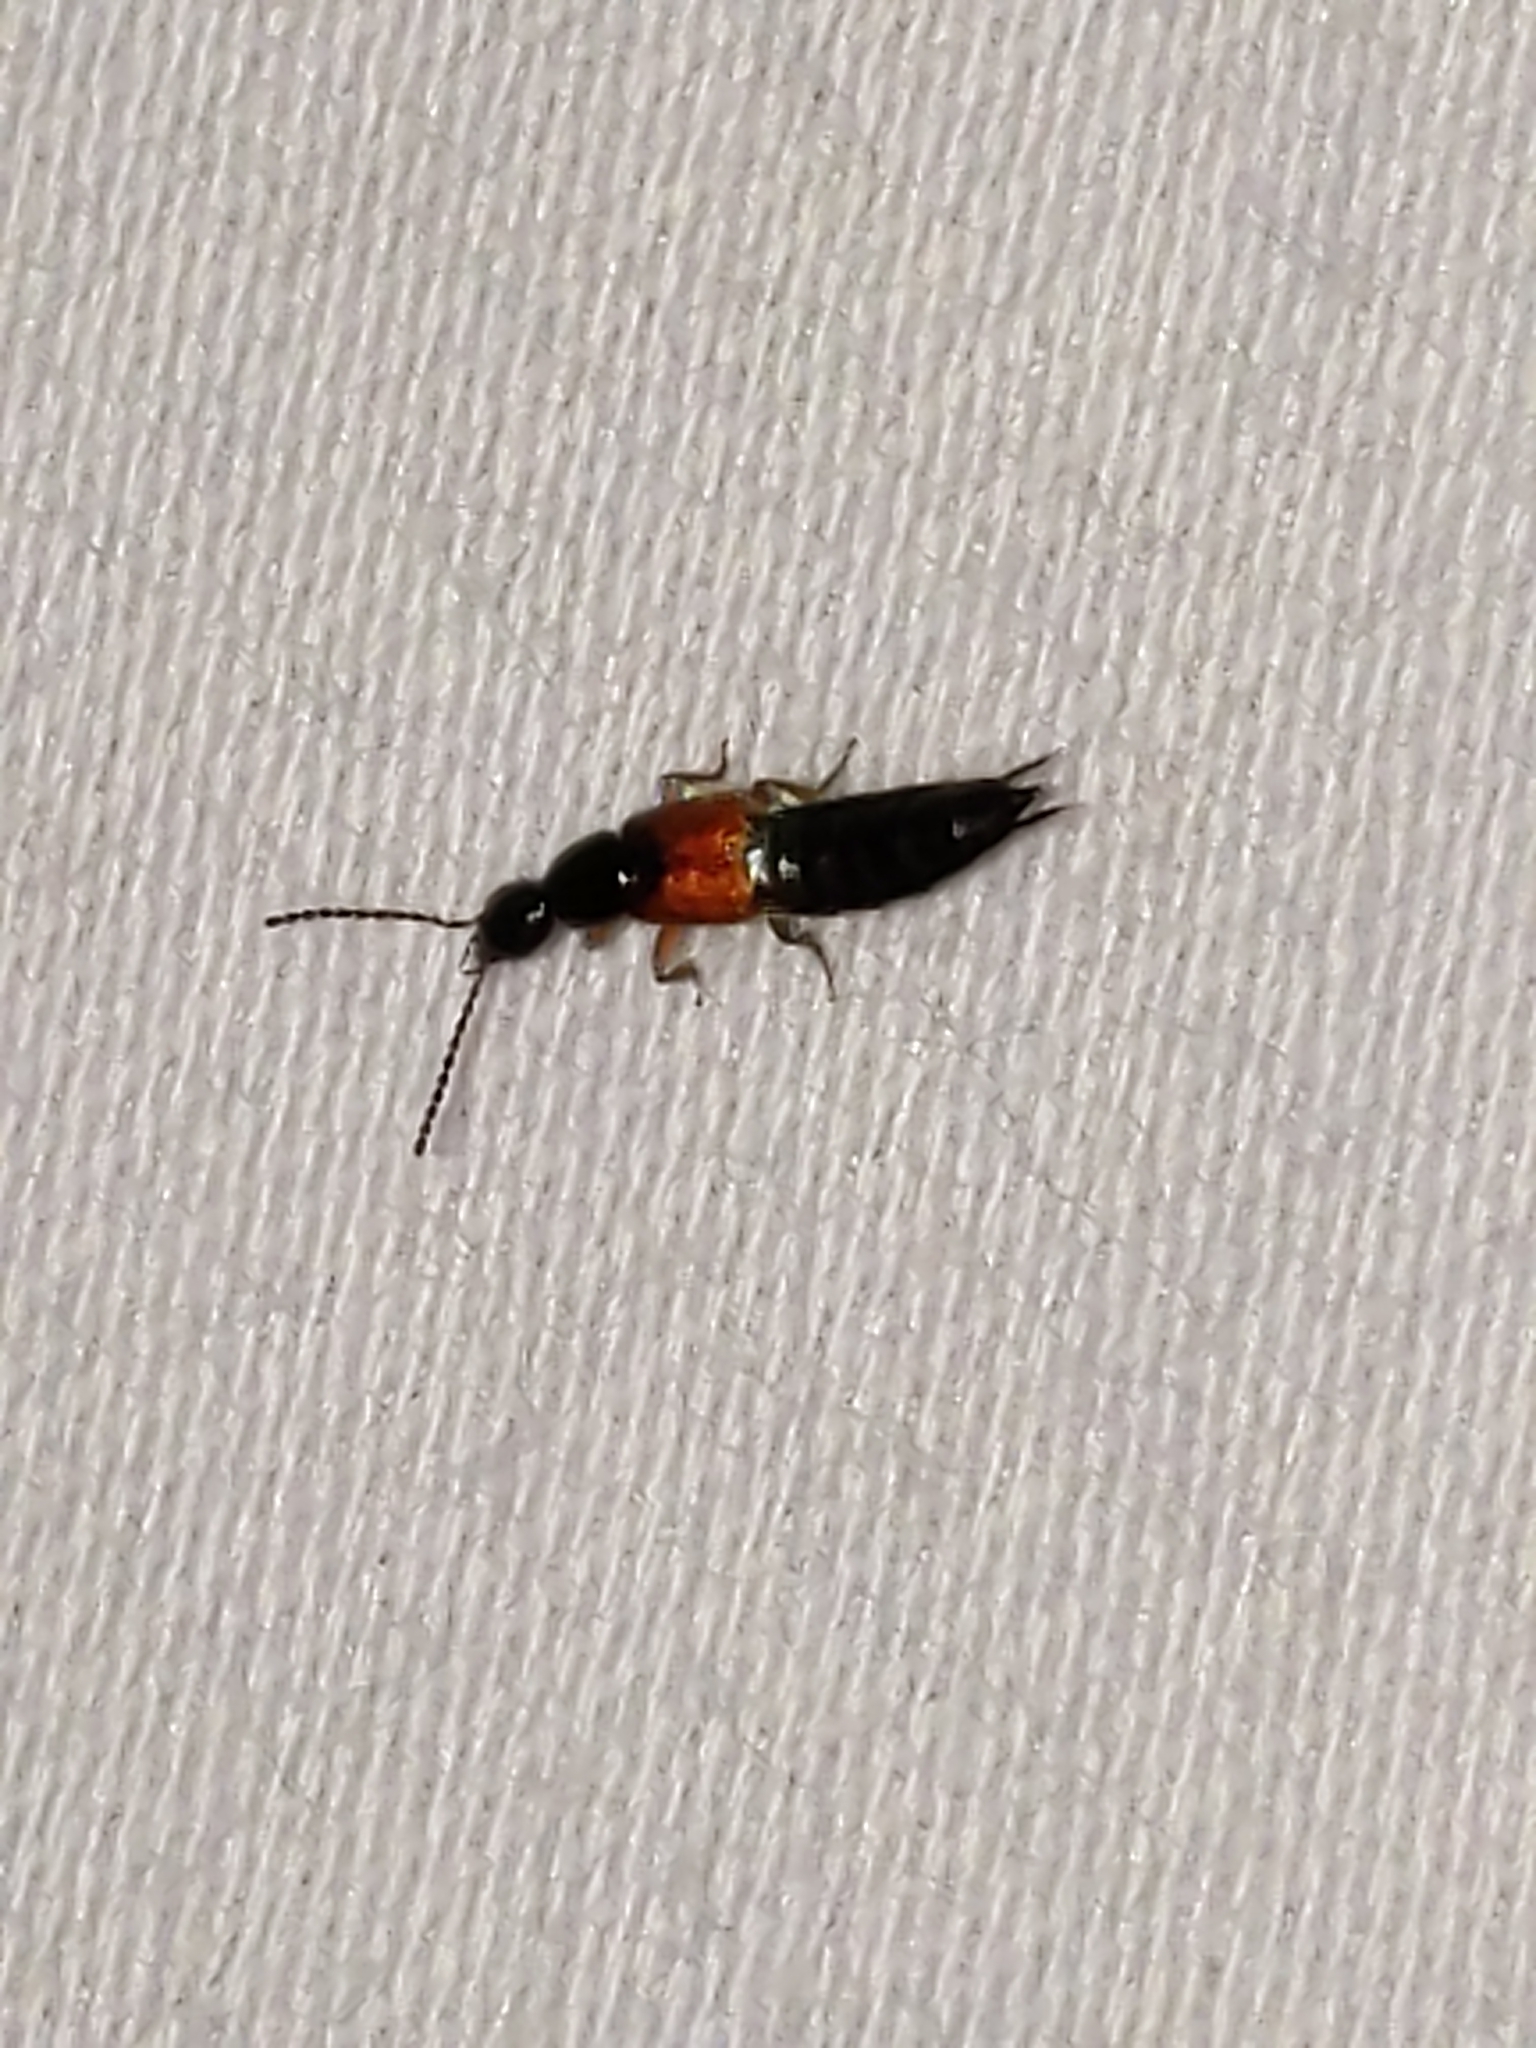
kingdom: Animalia
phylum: Arthropoda
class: Insecta
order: Coleoptera
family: Staphylinidae
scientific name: Staphylinidae
